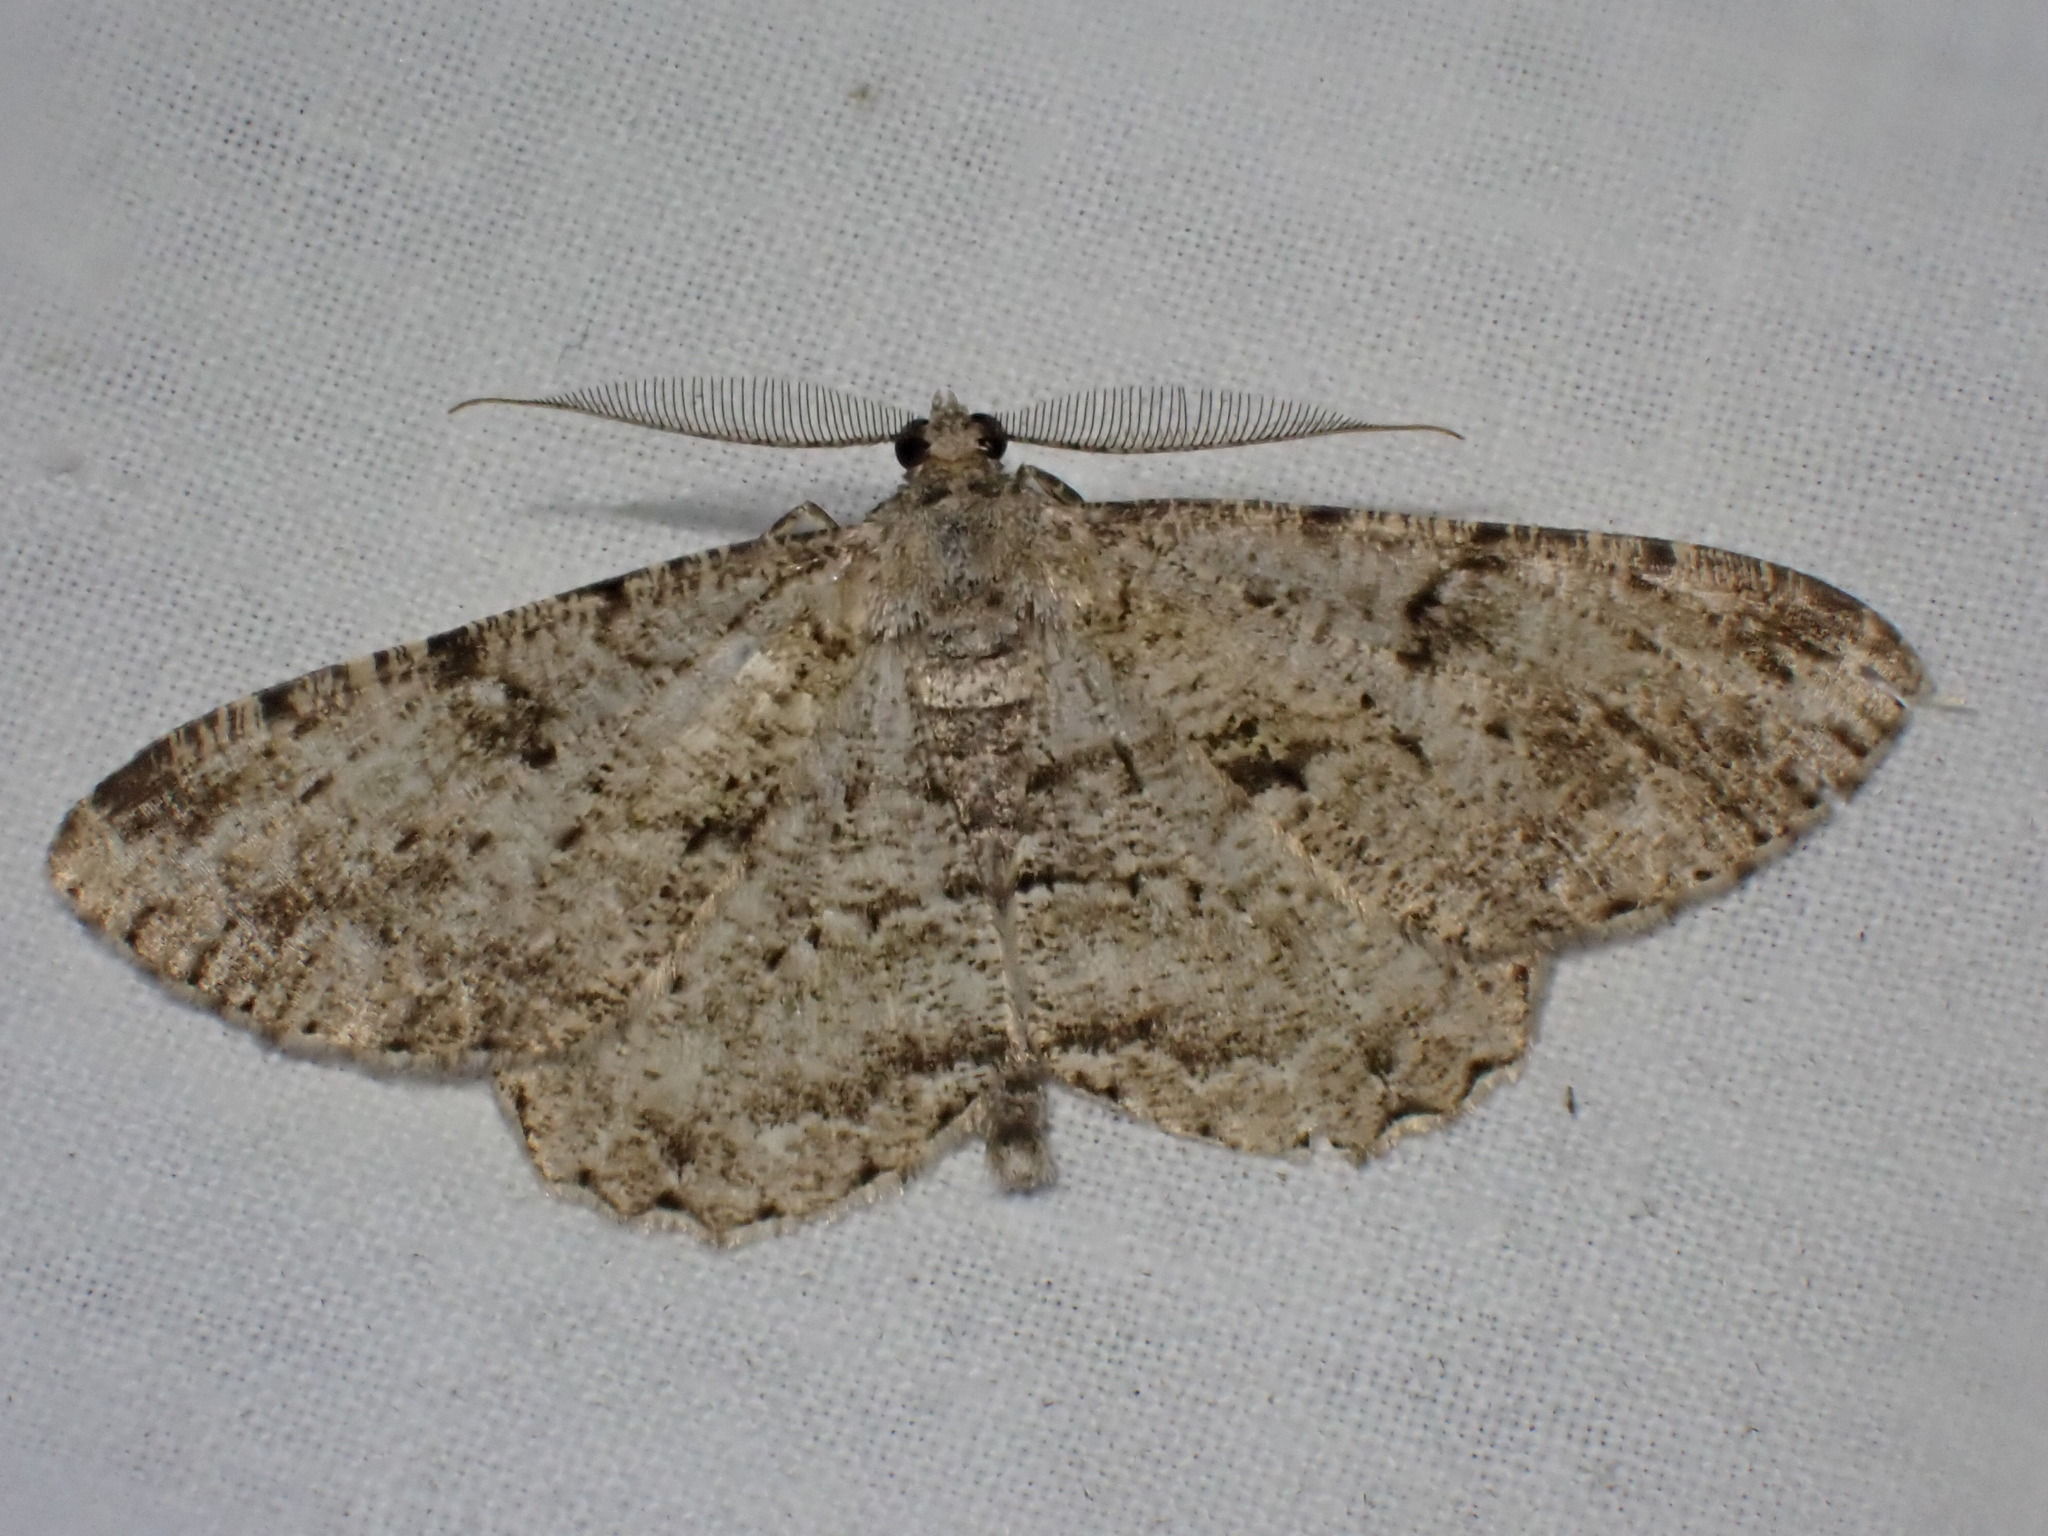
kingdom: Animalia
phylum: Arthropoda
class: Insecta
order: Lepidoptera
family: Geometridae
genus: Peribatodes
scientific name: Peribatodes rhomboidaria
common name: Willow beauty
